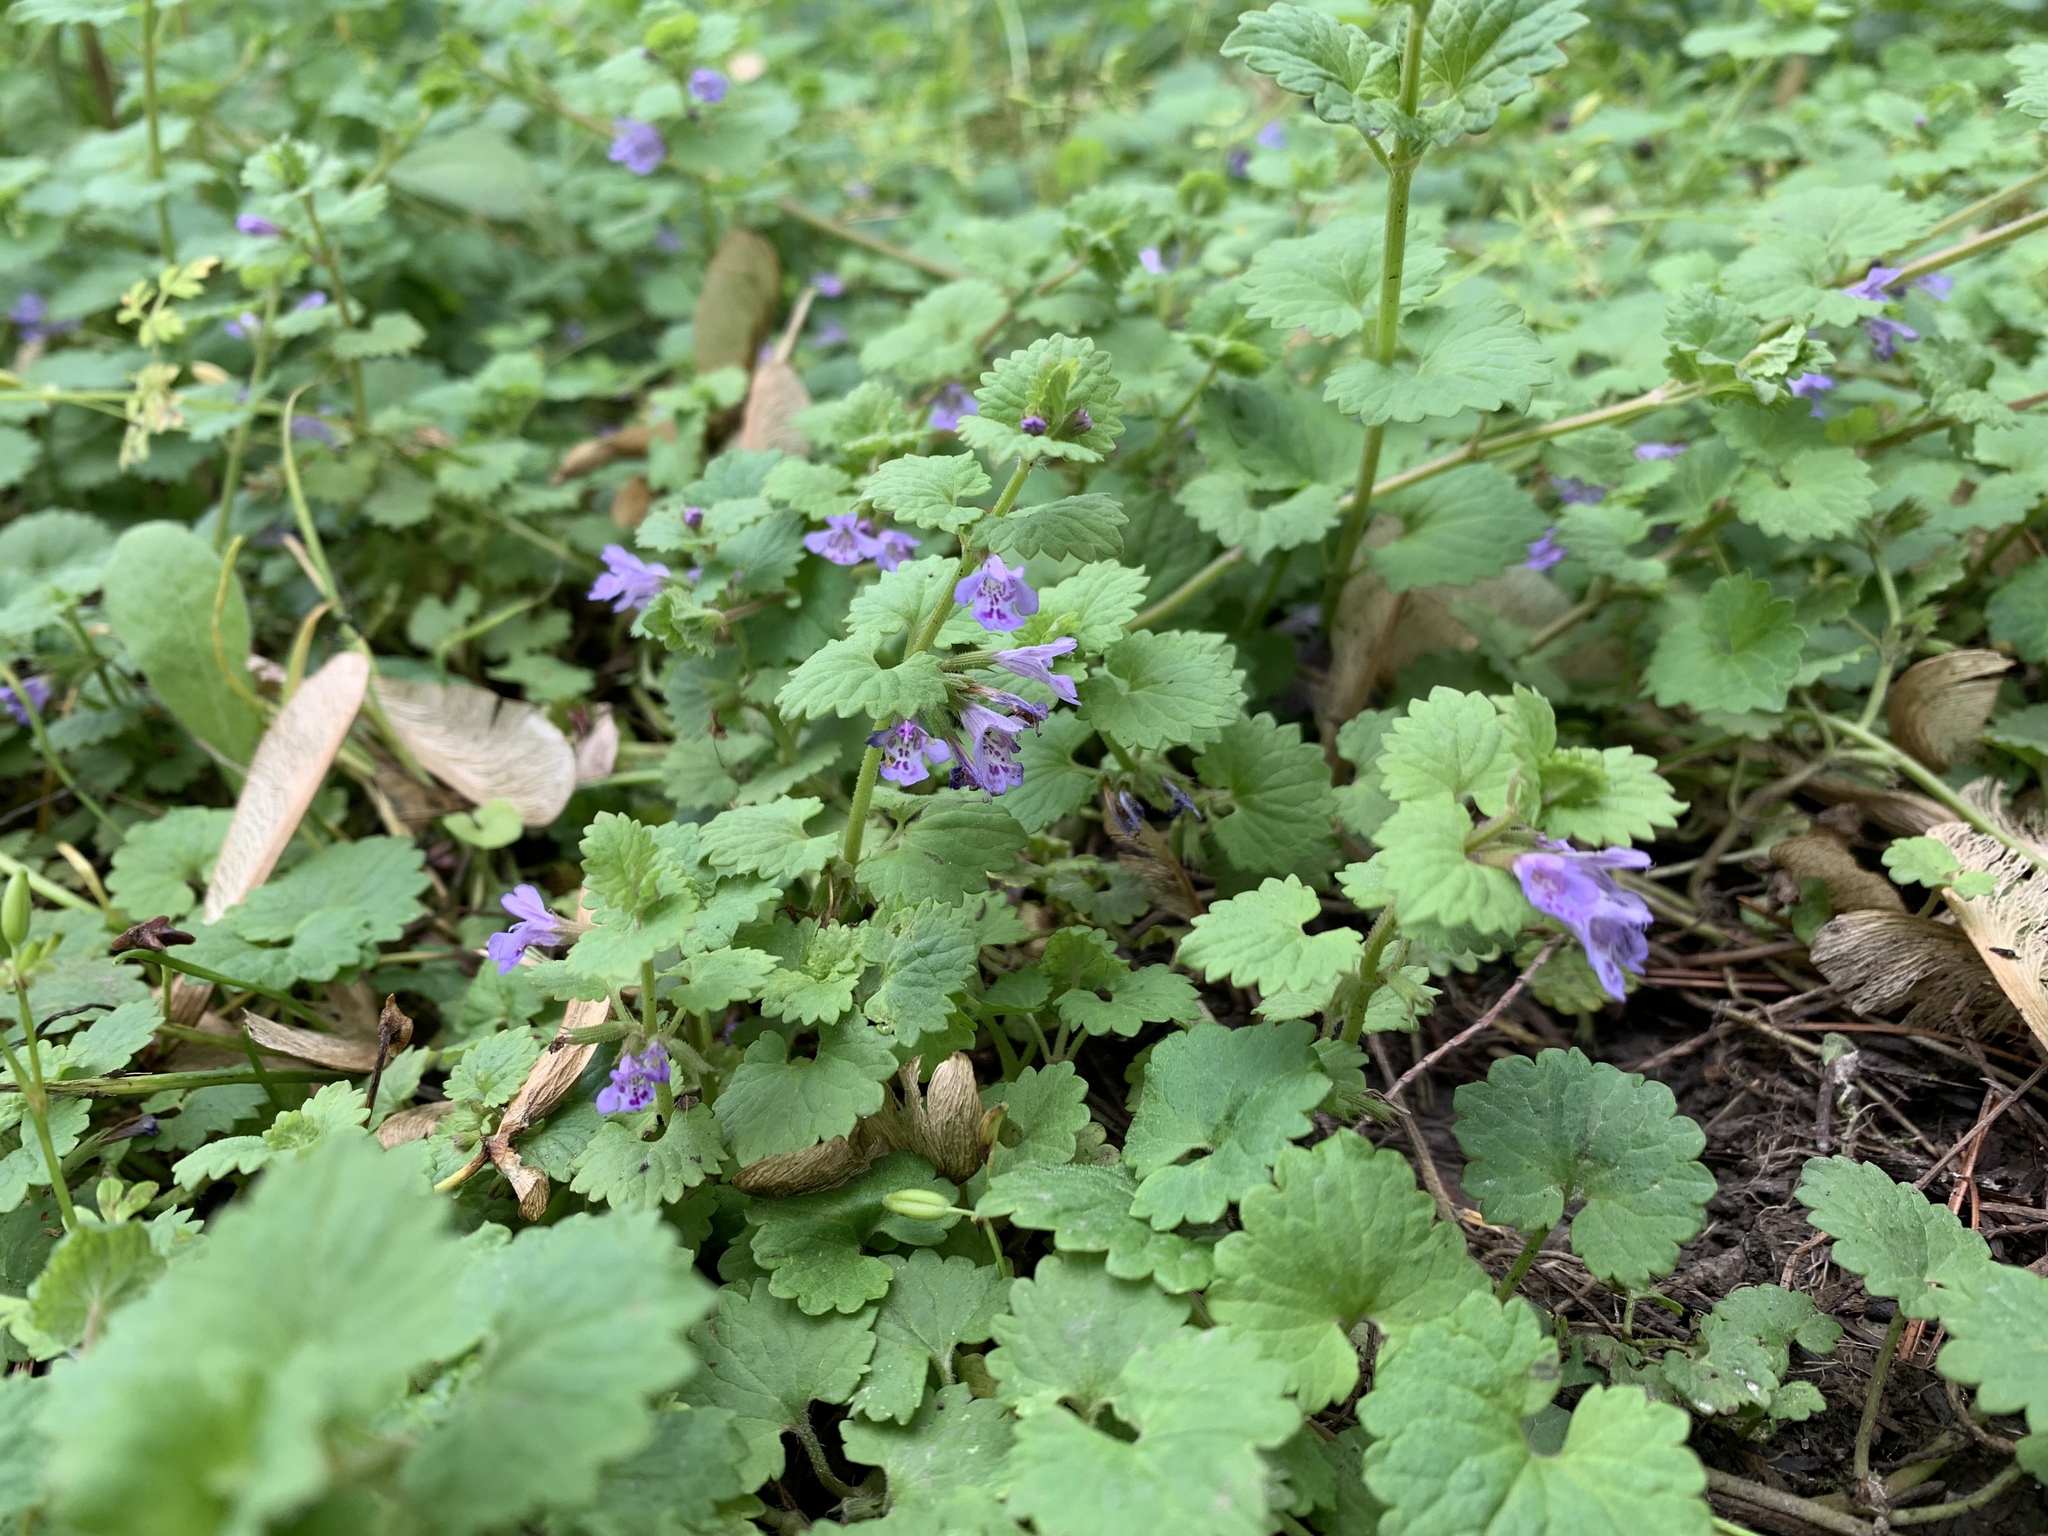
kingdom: Plantae
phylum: Tracheophyta
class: Magnoliopsida
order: Lamiales
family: Lamiaceae
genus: Glechoma
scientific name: Glechoma hederacea
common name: Ground ivy
